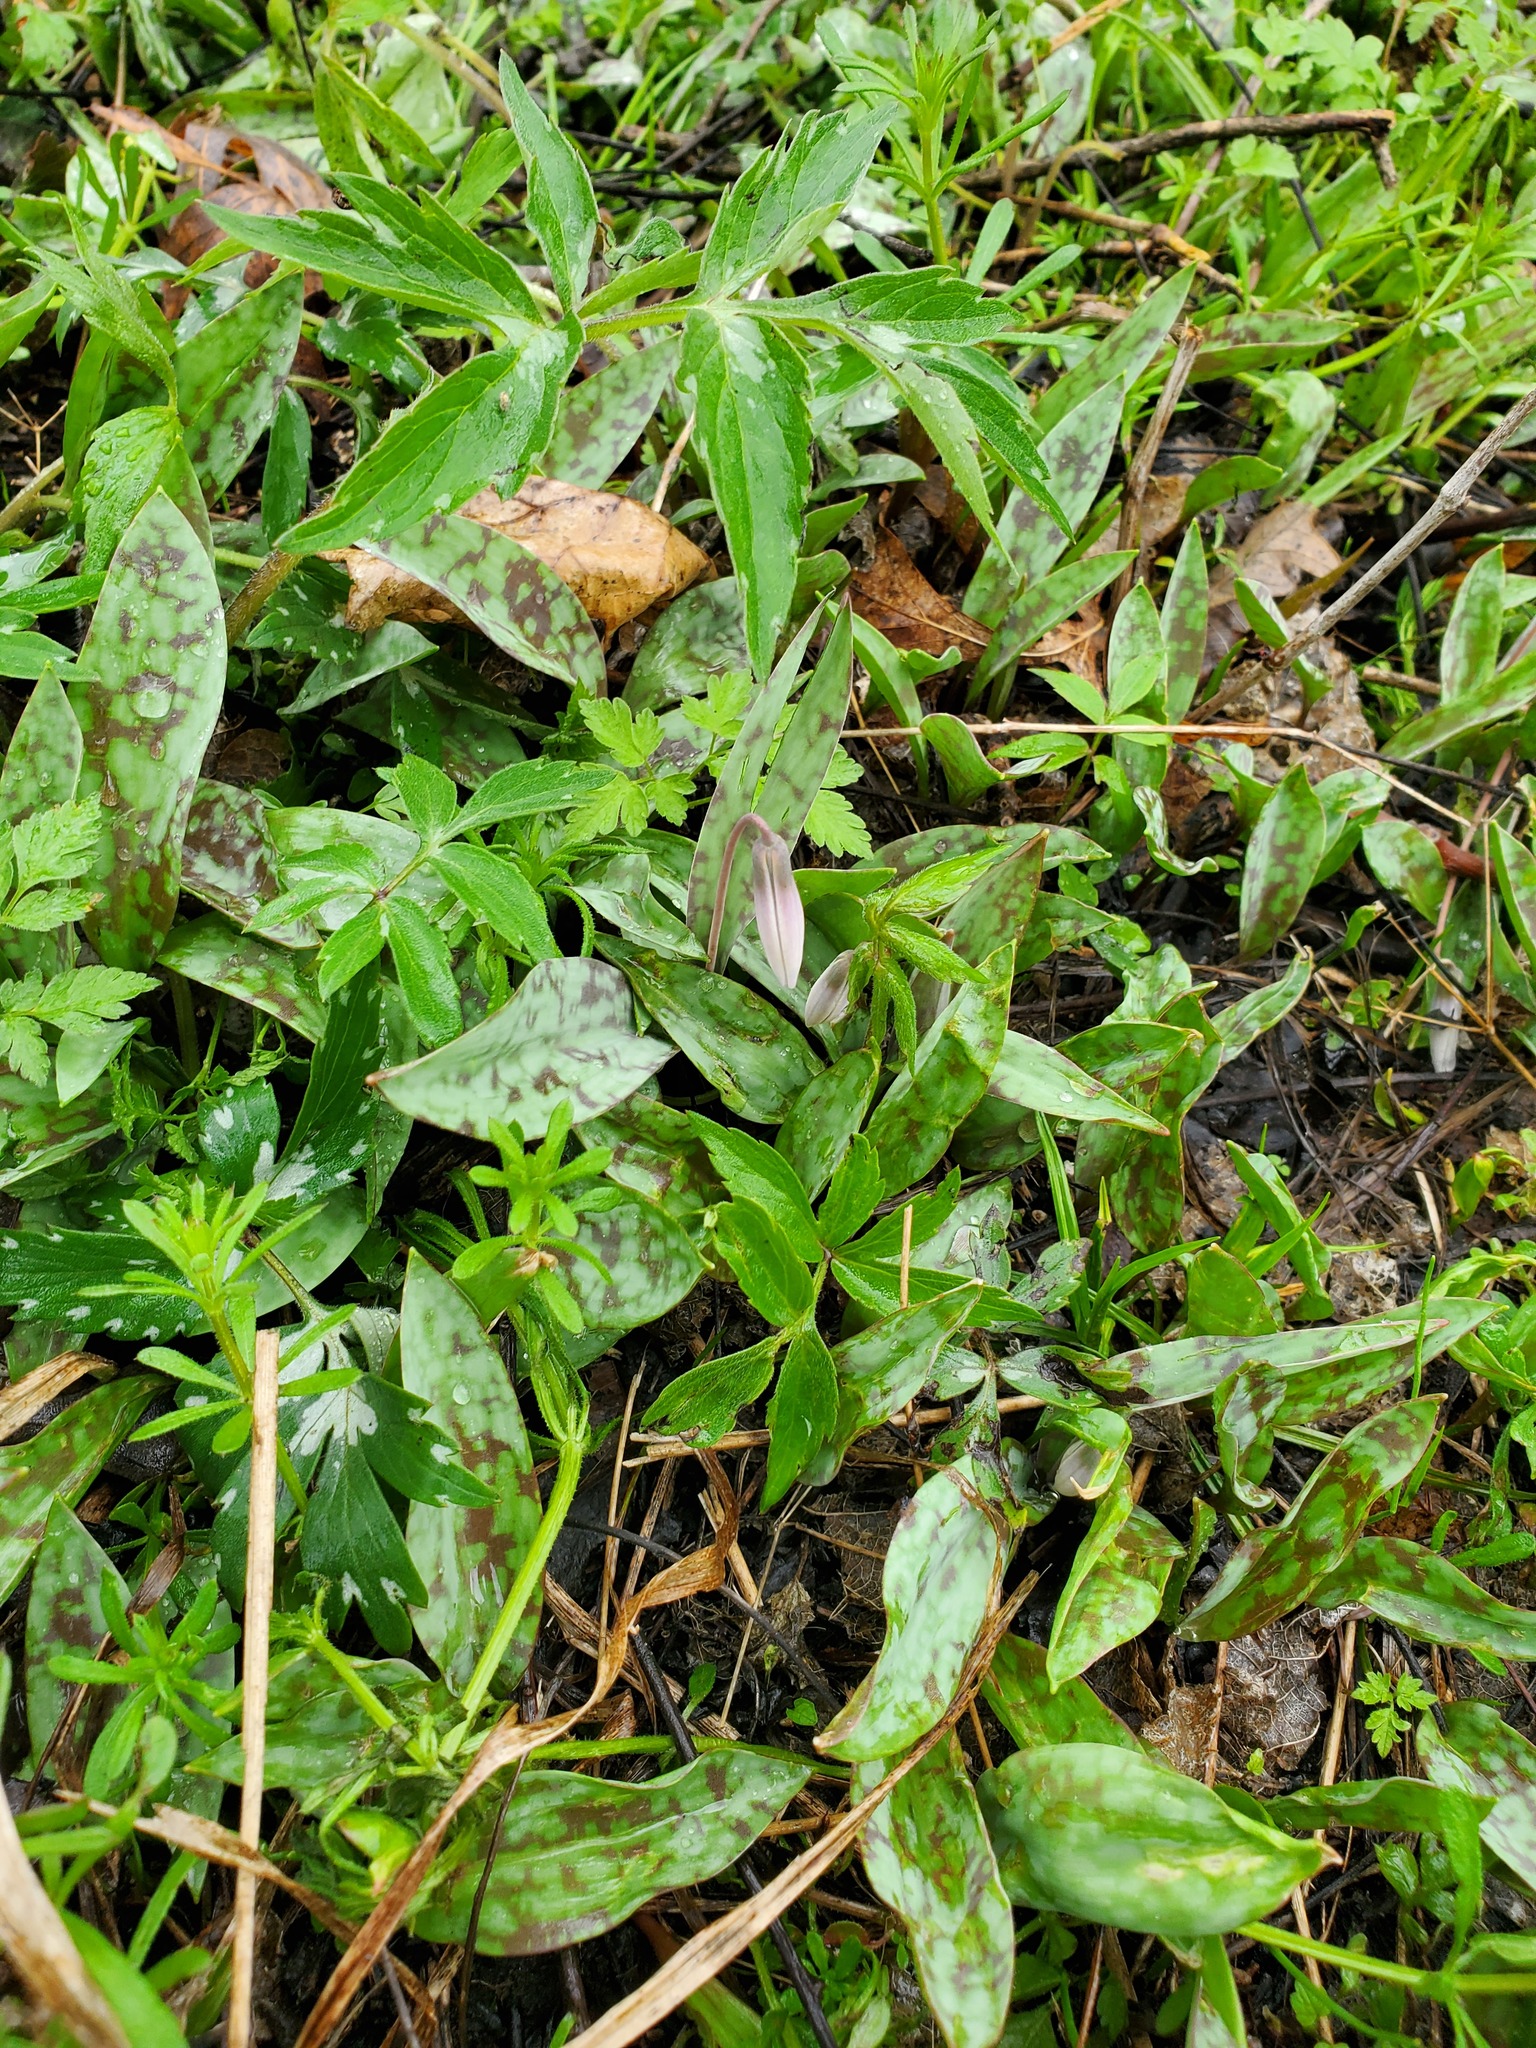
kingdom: Plantae
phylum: Tracheophyta
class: Liliopsida
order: Liliales
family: Liliaceae
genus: Erythronium
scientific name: Erythronium albidum
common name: White trout-lily
